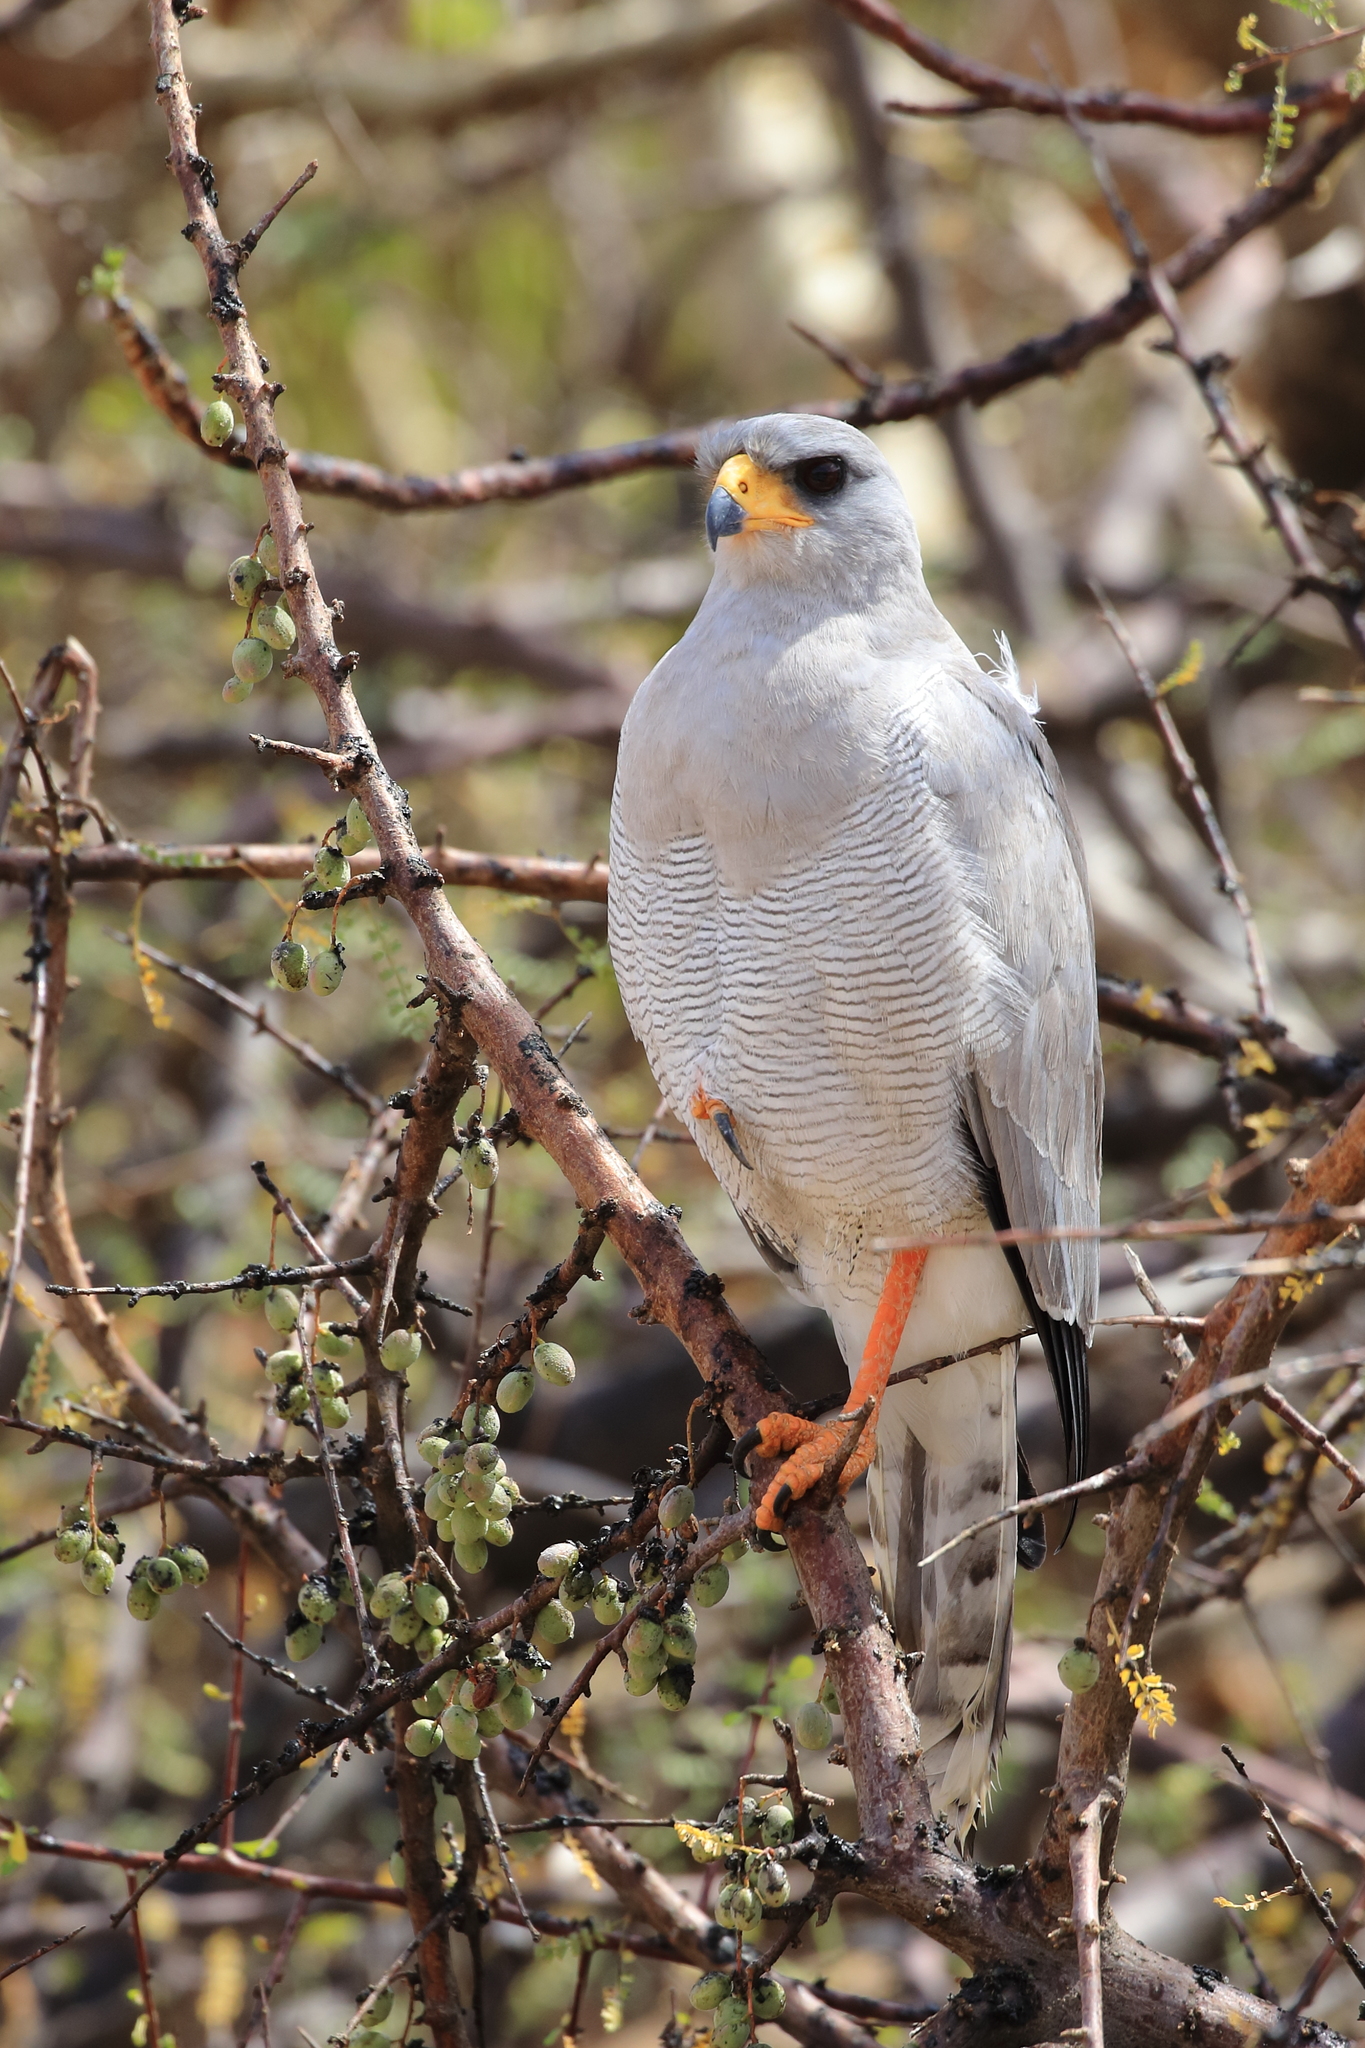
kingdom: Animalia
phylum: Chordata
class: Aves
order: Accipitriformes
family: Accipitridae
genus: Melierax
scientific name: Melierax poliopterus
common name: Eastern chanting goshawk
